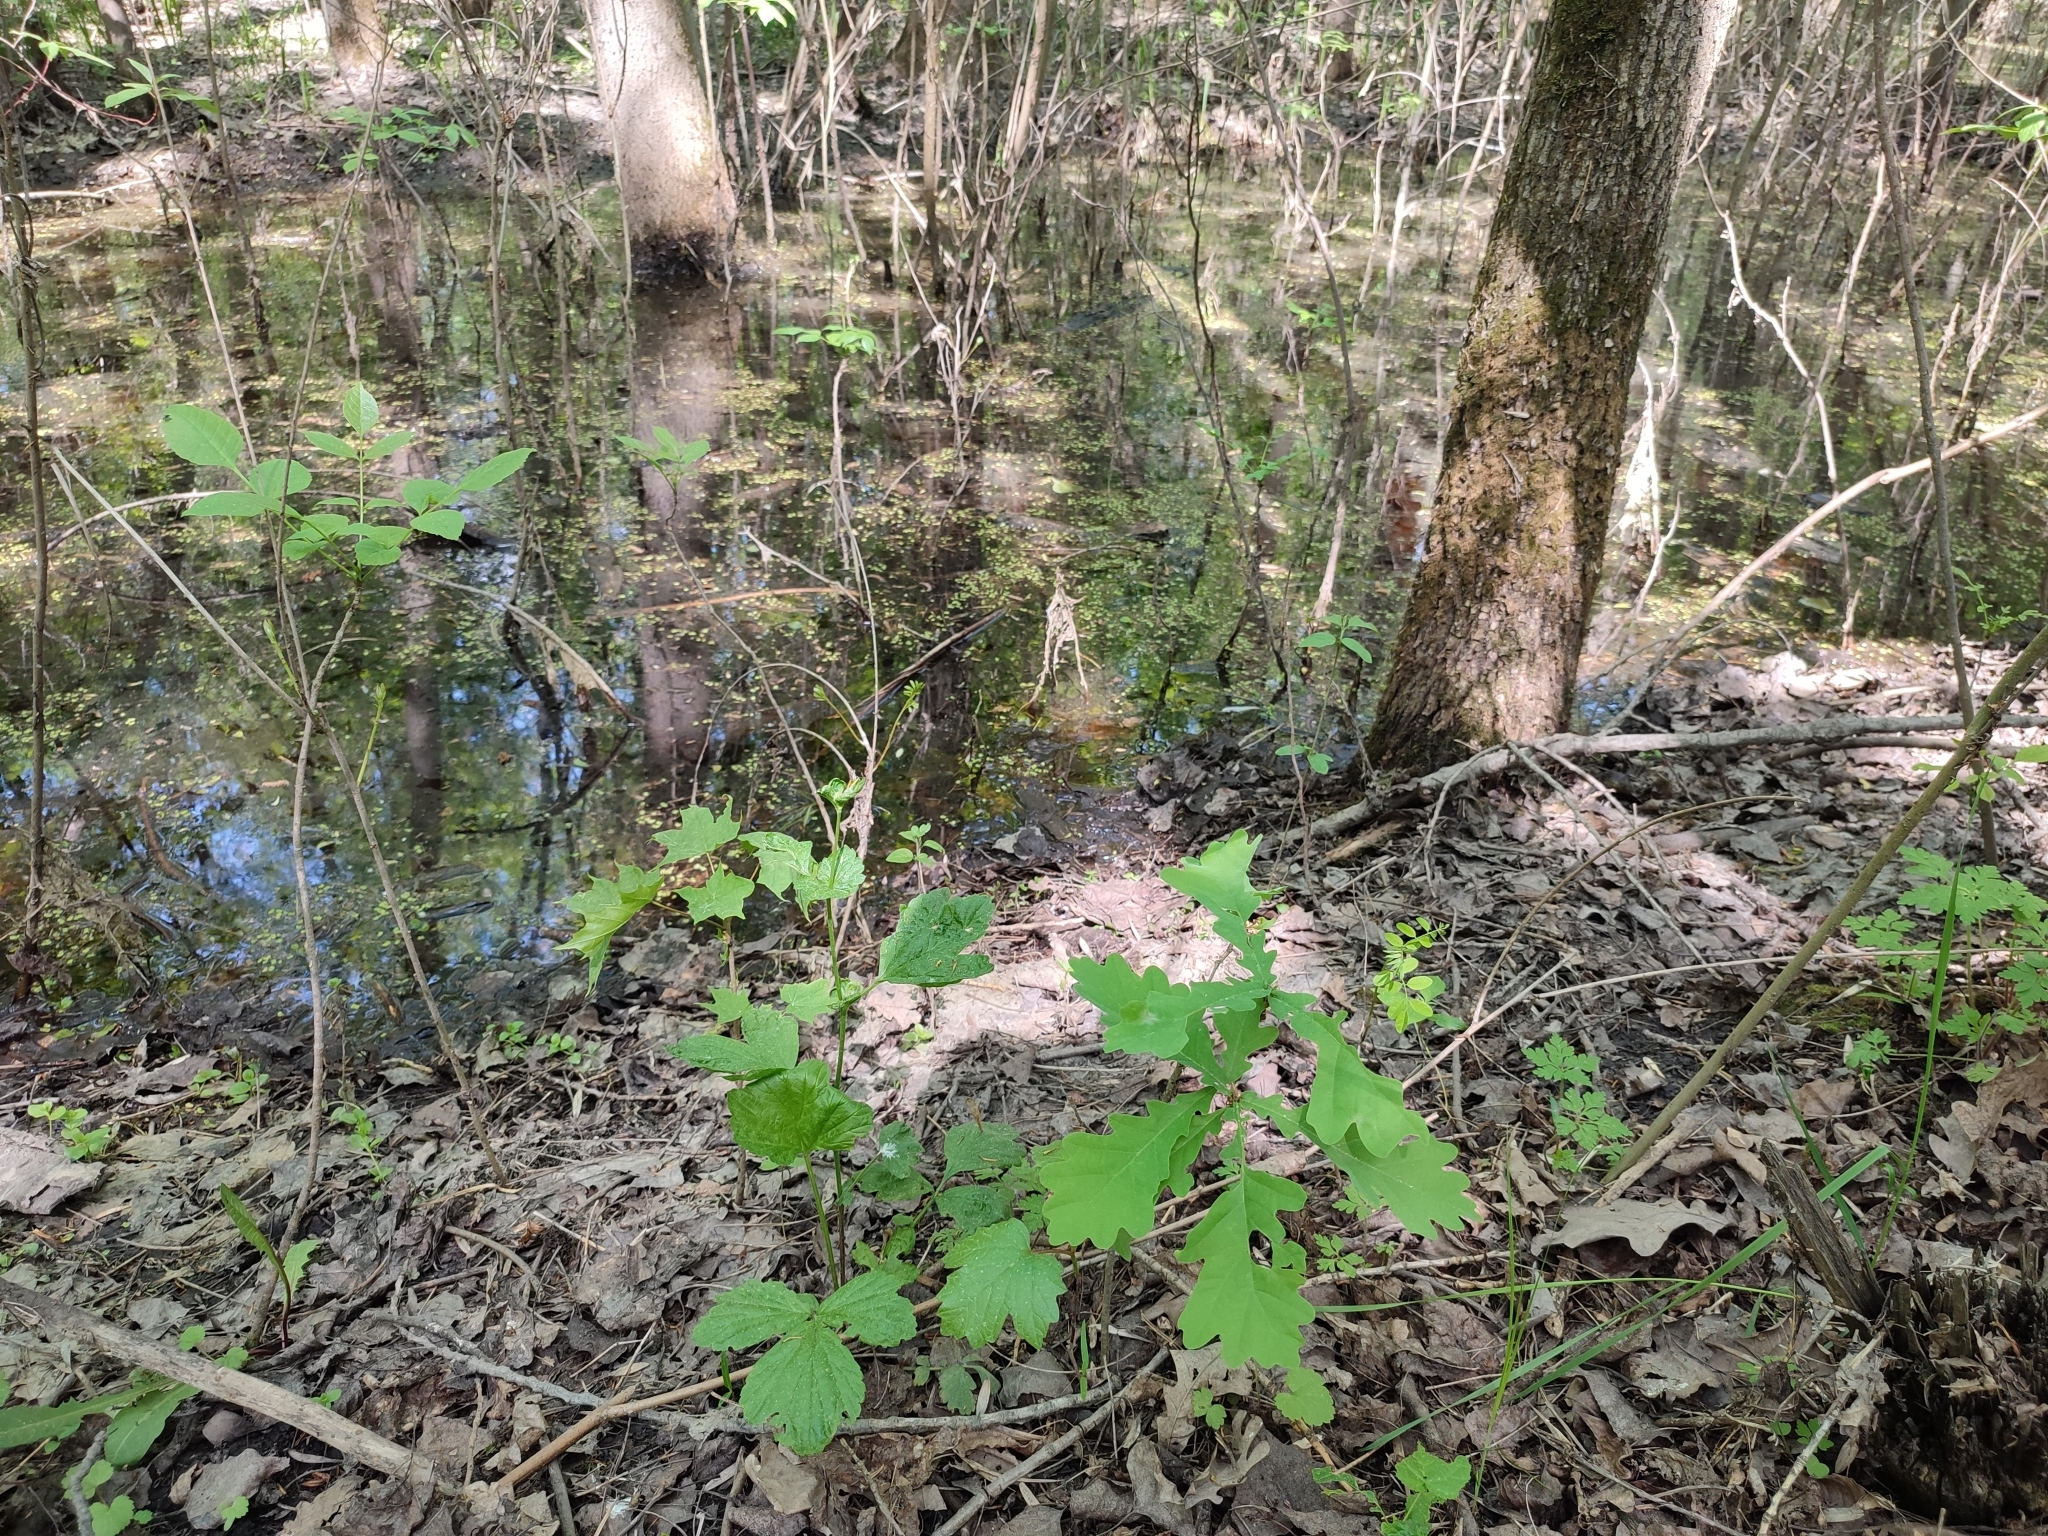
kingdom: Plantae
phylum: Tracheophyta
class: Magnoliopsida
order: Fagales
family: Fagaceae
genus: Quercus
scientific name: Quercus robur
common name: Pedunculate oak
